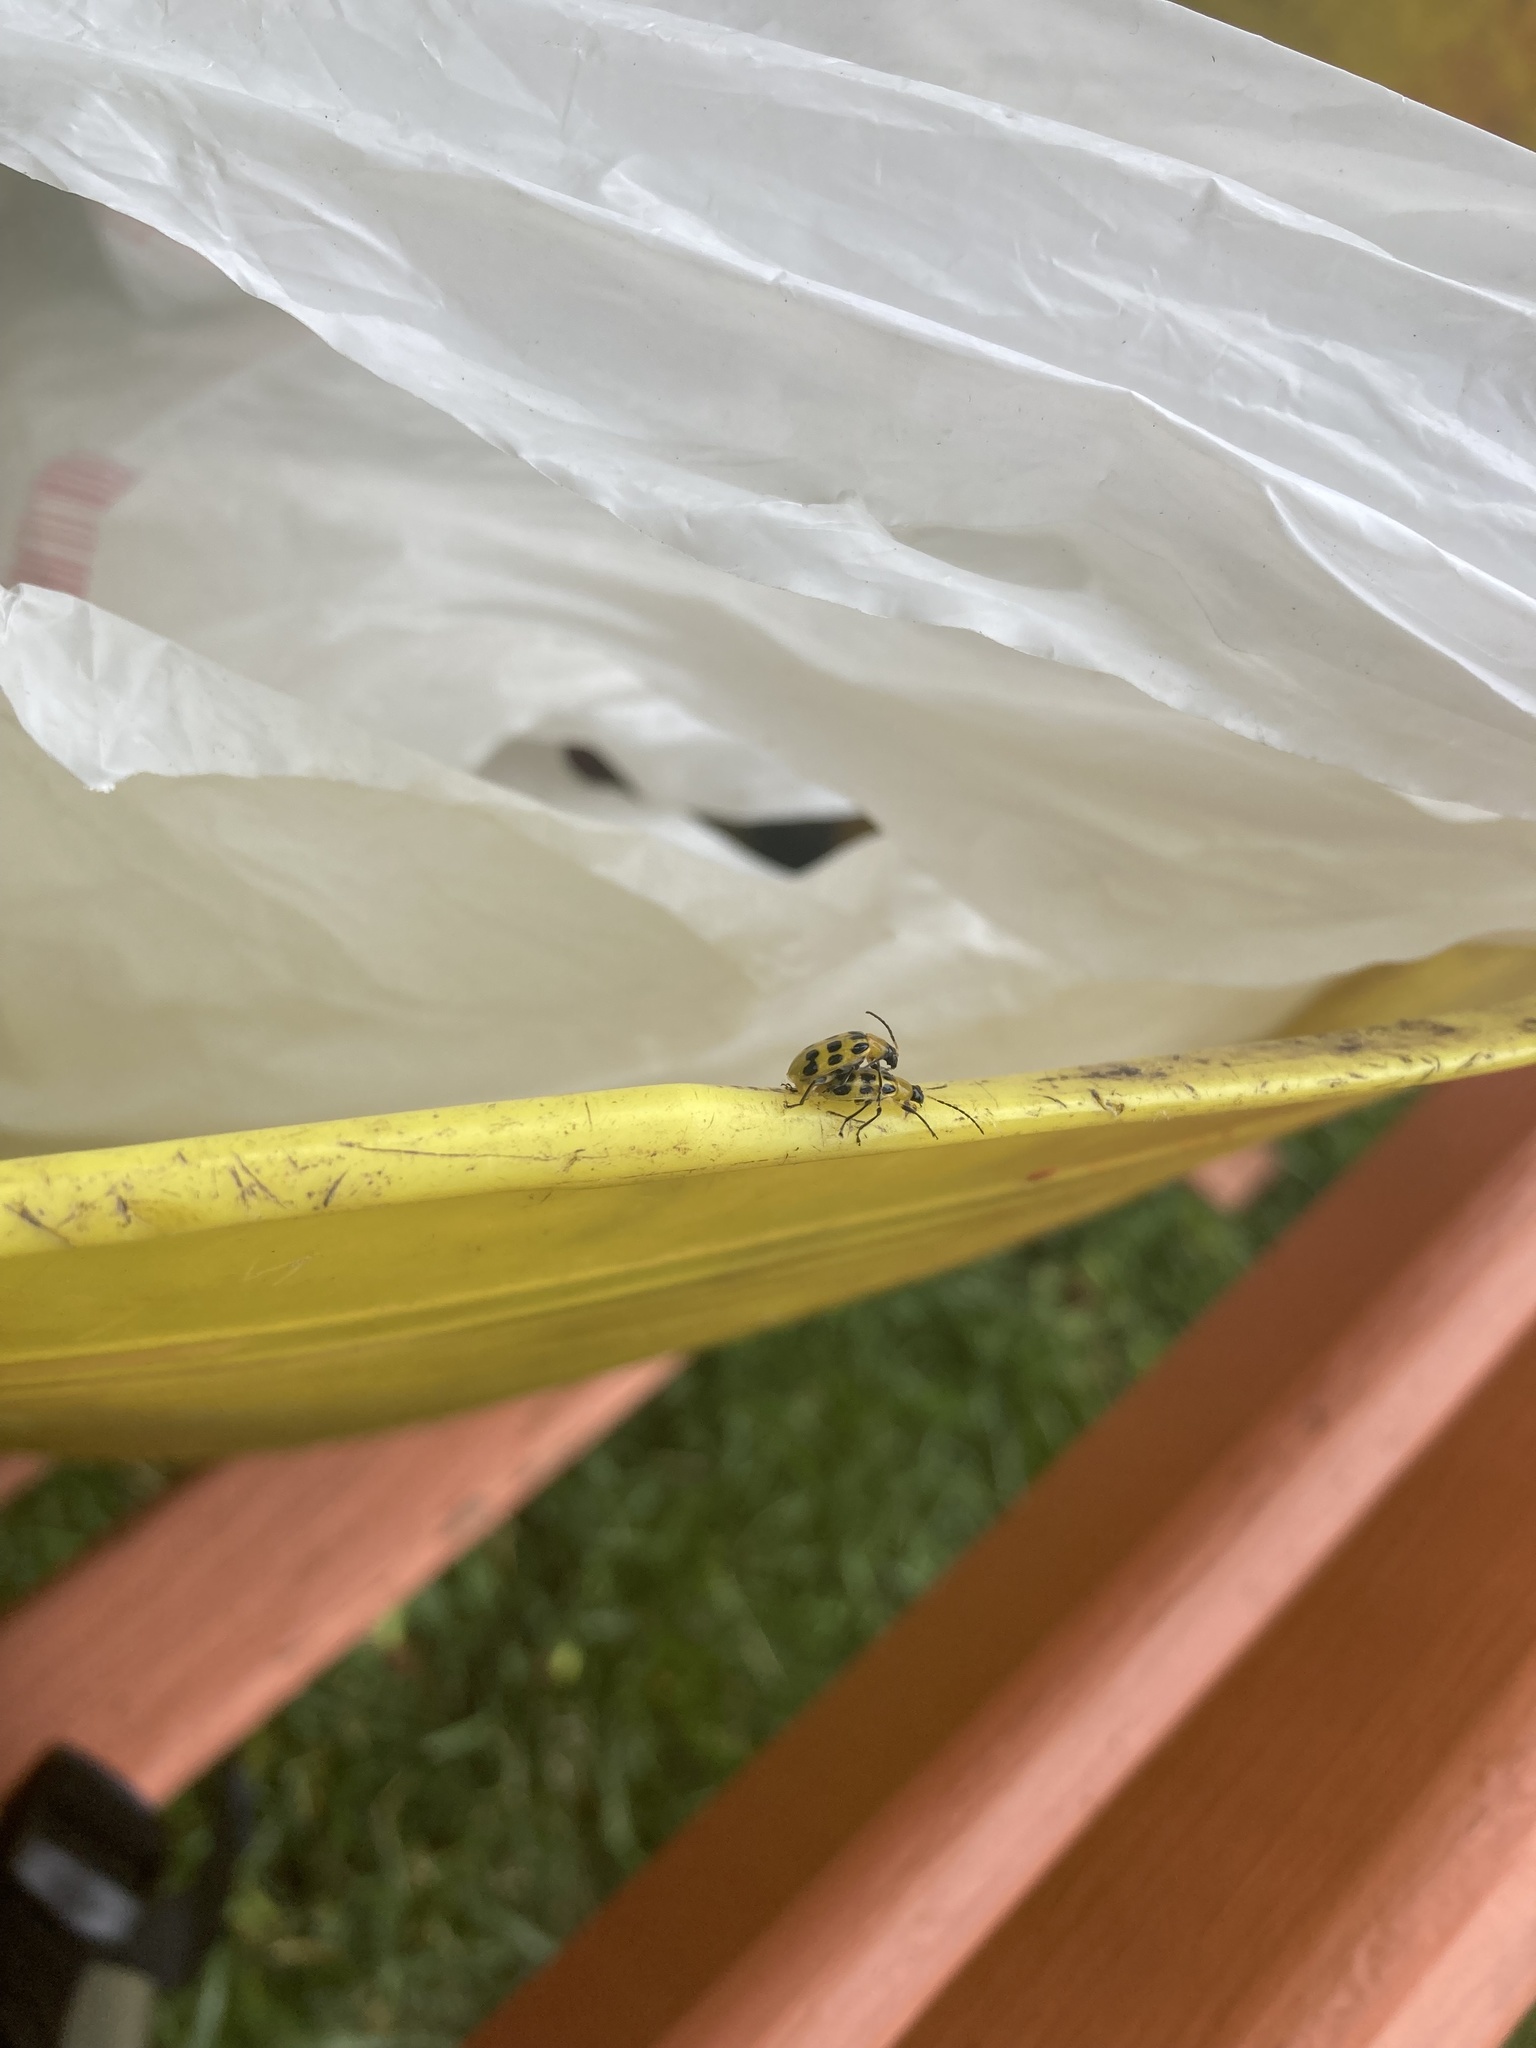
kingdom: Animalia
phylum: Arthropoda
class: Insecta
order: Coleoptera
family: Chrysomelidae
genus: Diabrotica
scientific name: Diabrotica undecimpunctata
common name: Spotted cucumber beetle
